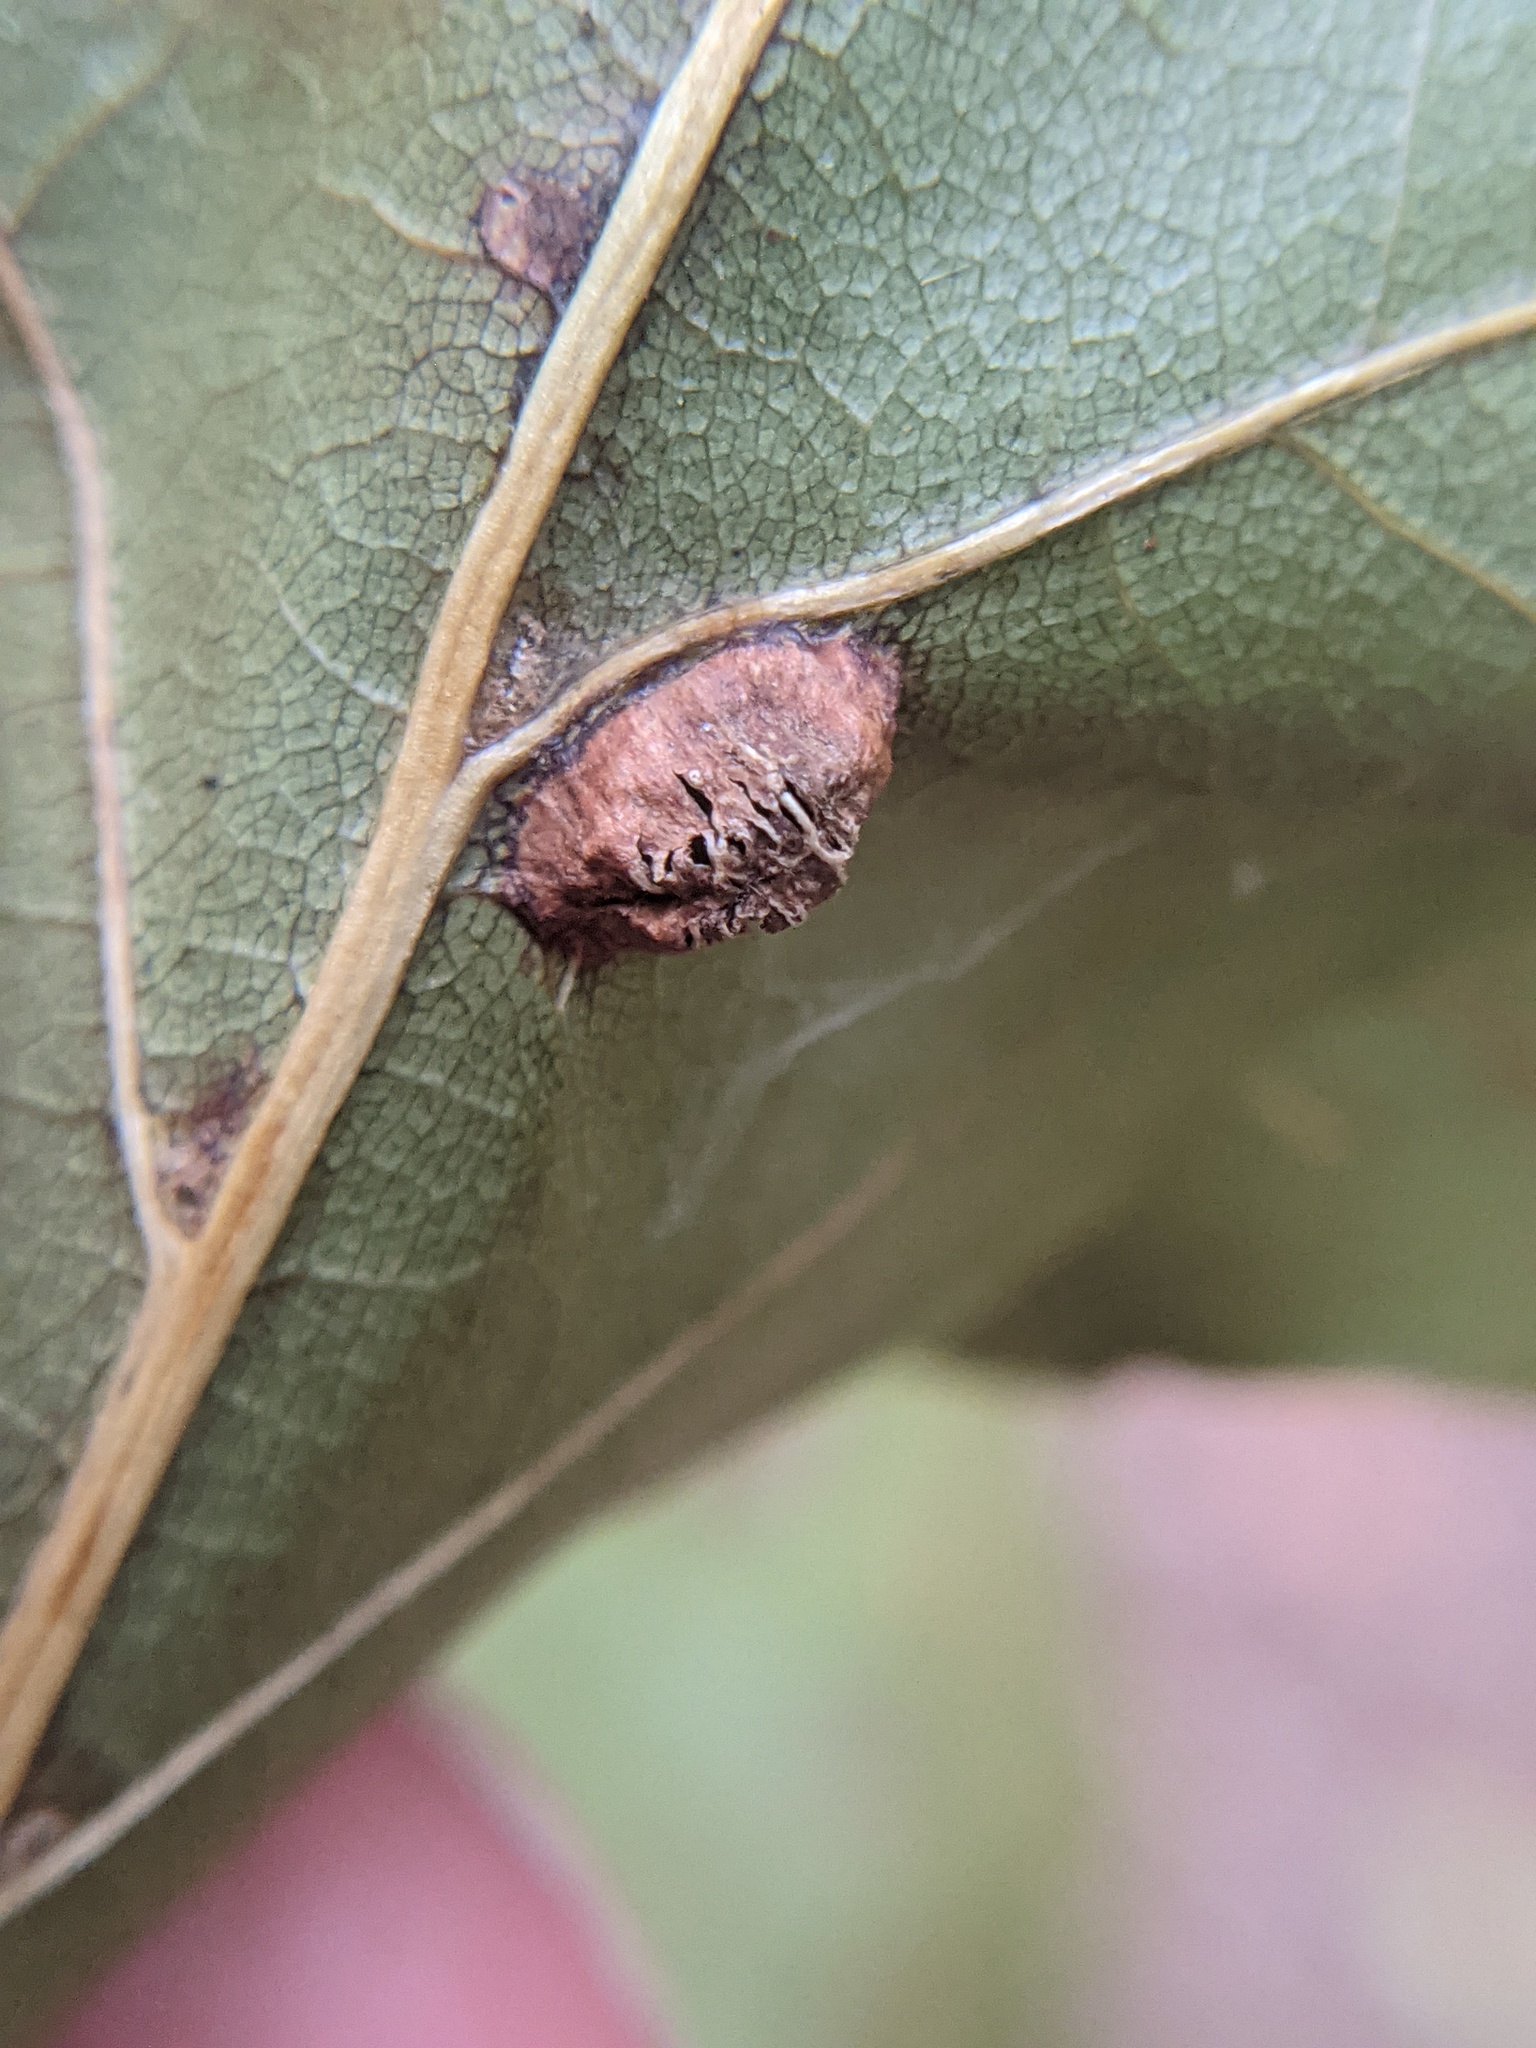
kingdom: Animalia
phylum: Arthropoda
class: Insecta
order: Diptera
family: Cecidomyiidae
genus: Macrodiplosis
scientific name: Macrodiplosis majalis
